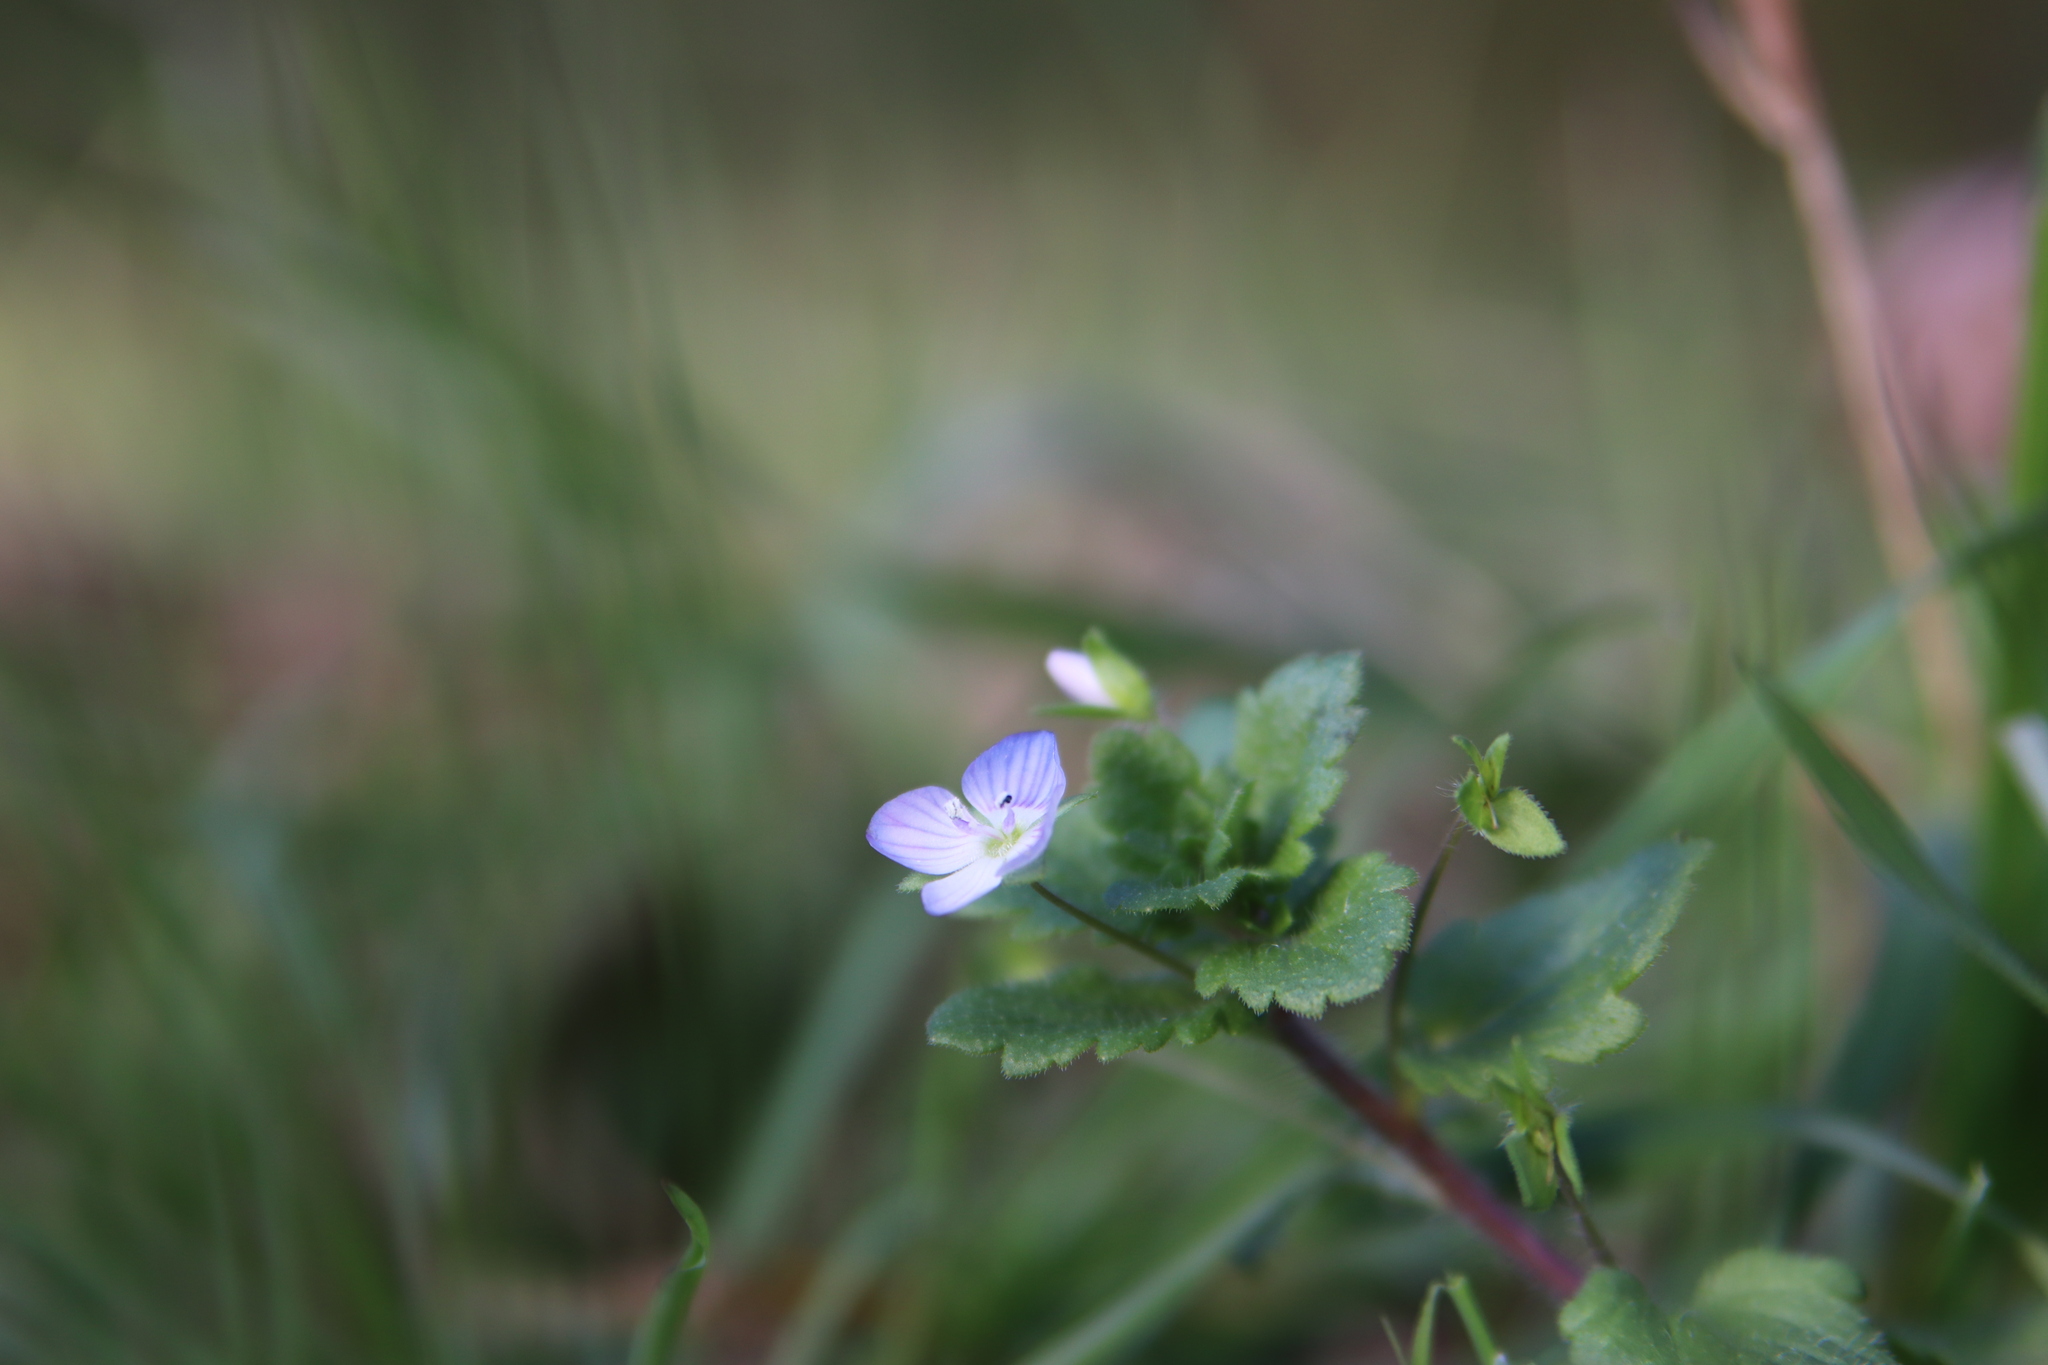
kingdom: Plantae
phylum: Tracheophyta
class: Magnoliopsida
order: Lamiales
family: Plantaginaceae
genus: Veronica
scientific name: Veronica persica
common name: Common field-speedwell
